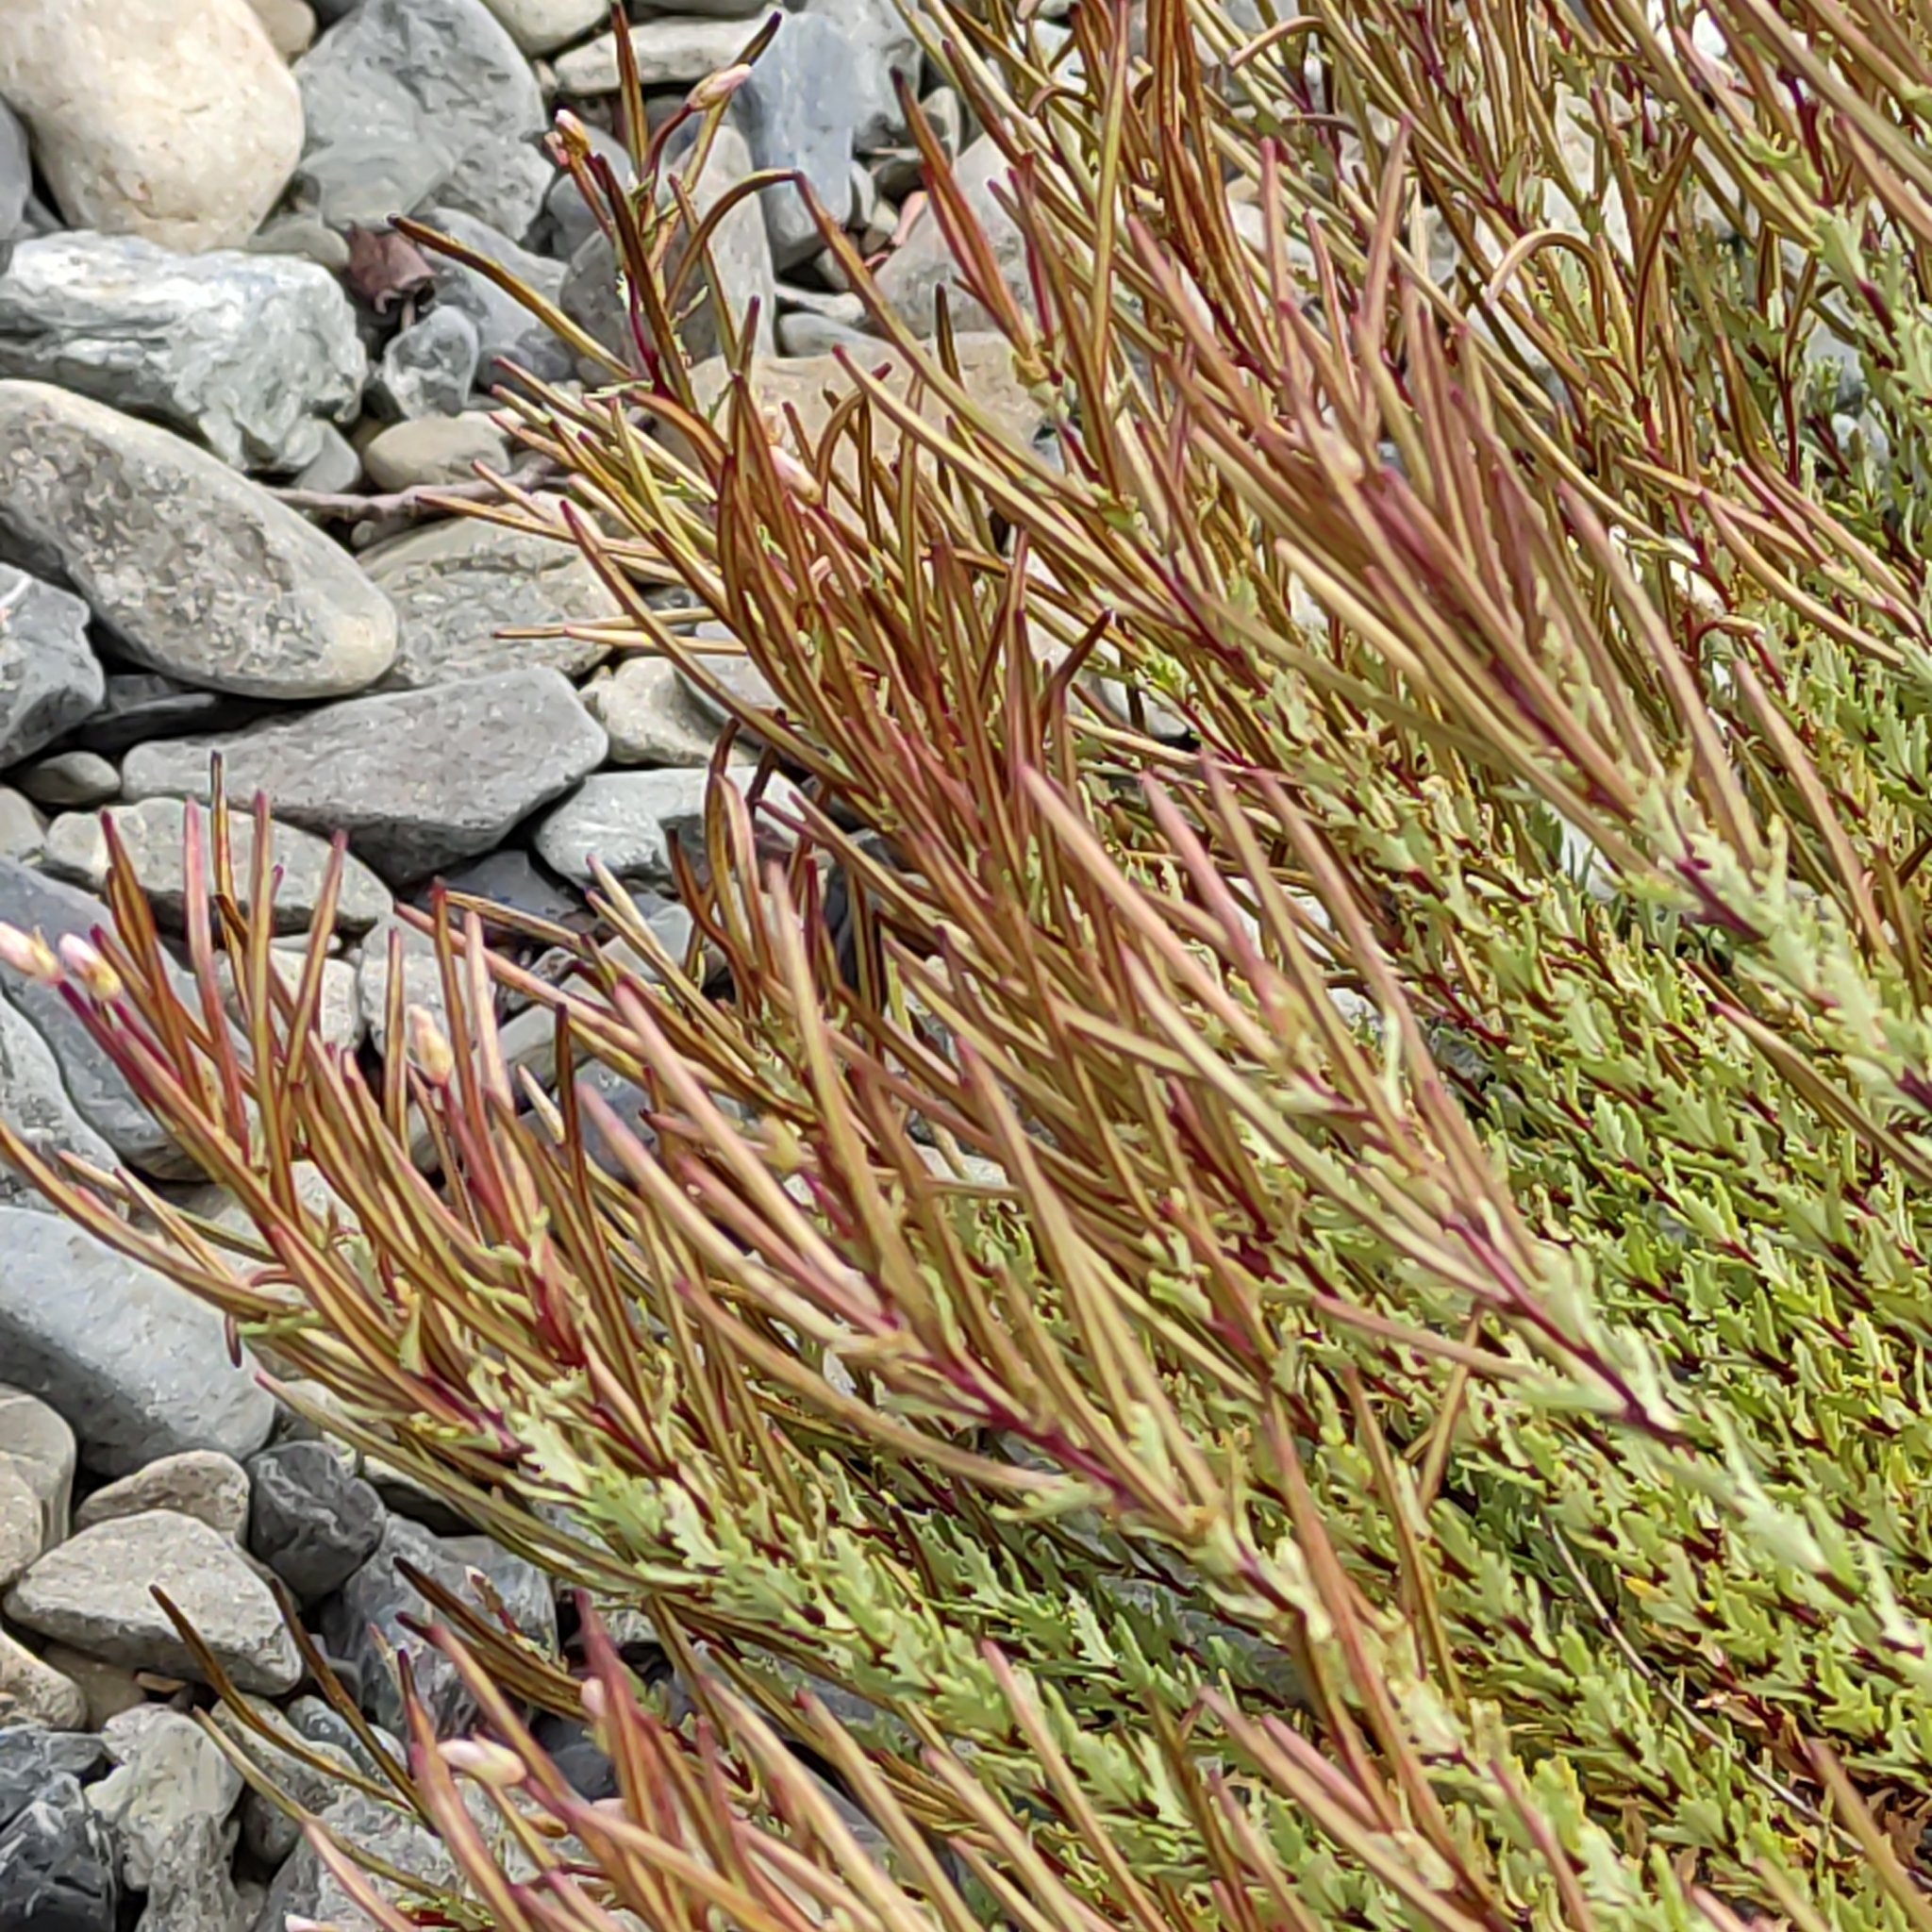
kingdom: Plantae
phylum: Tracheophyta
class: Magnoliopsida
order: Myrtales
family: Onagraceae
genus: Epilobium
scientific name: Epilobium melanocaulon
